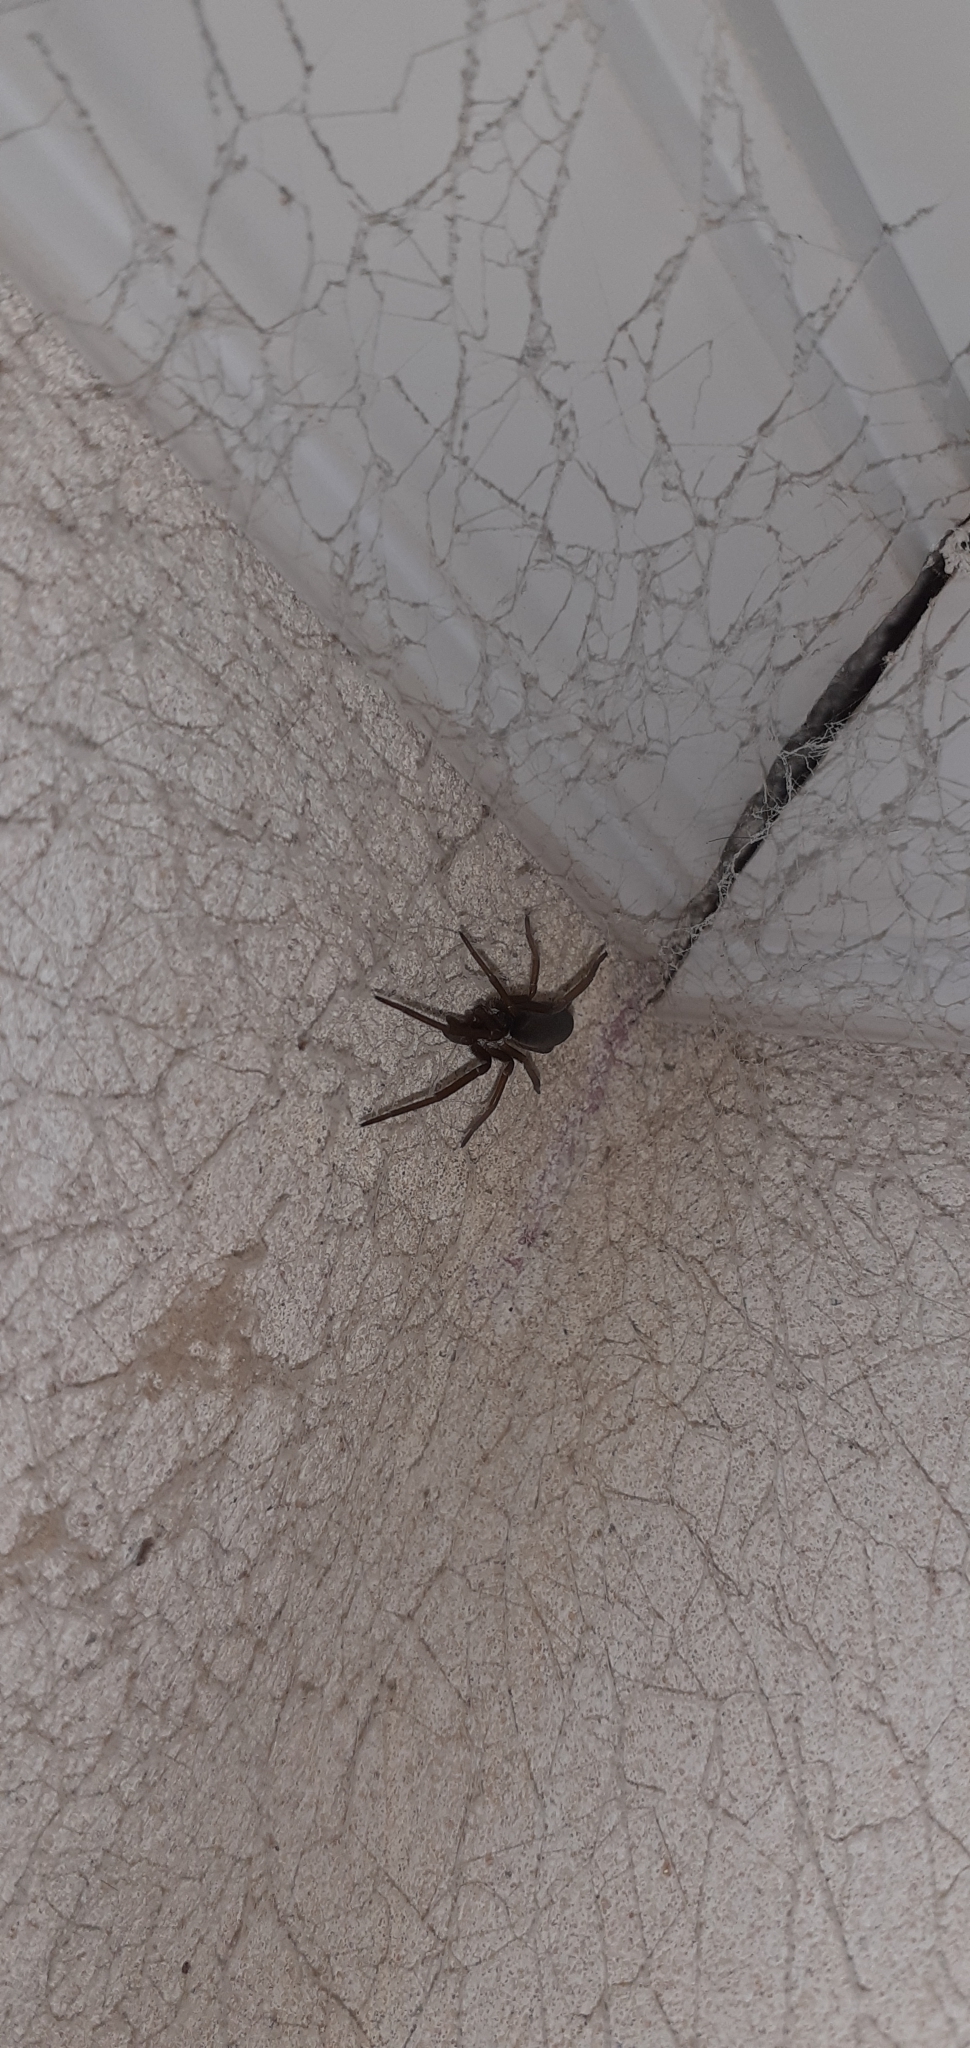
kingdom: Animalia
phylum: Arthropoda
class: Arachnida
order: Araneae
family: Filistatidae
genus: Kukulcania
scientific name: Kukulcania hibernalis
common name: Crevice weaver
